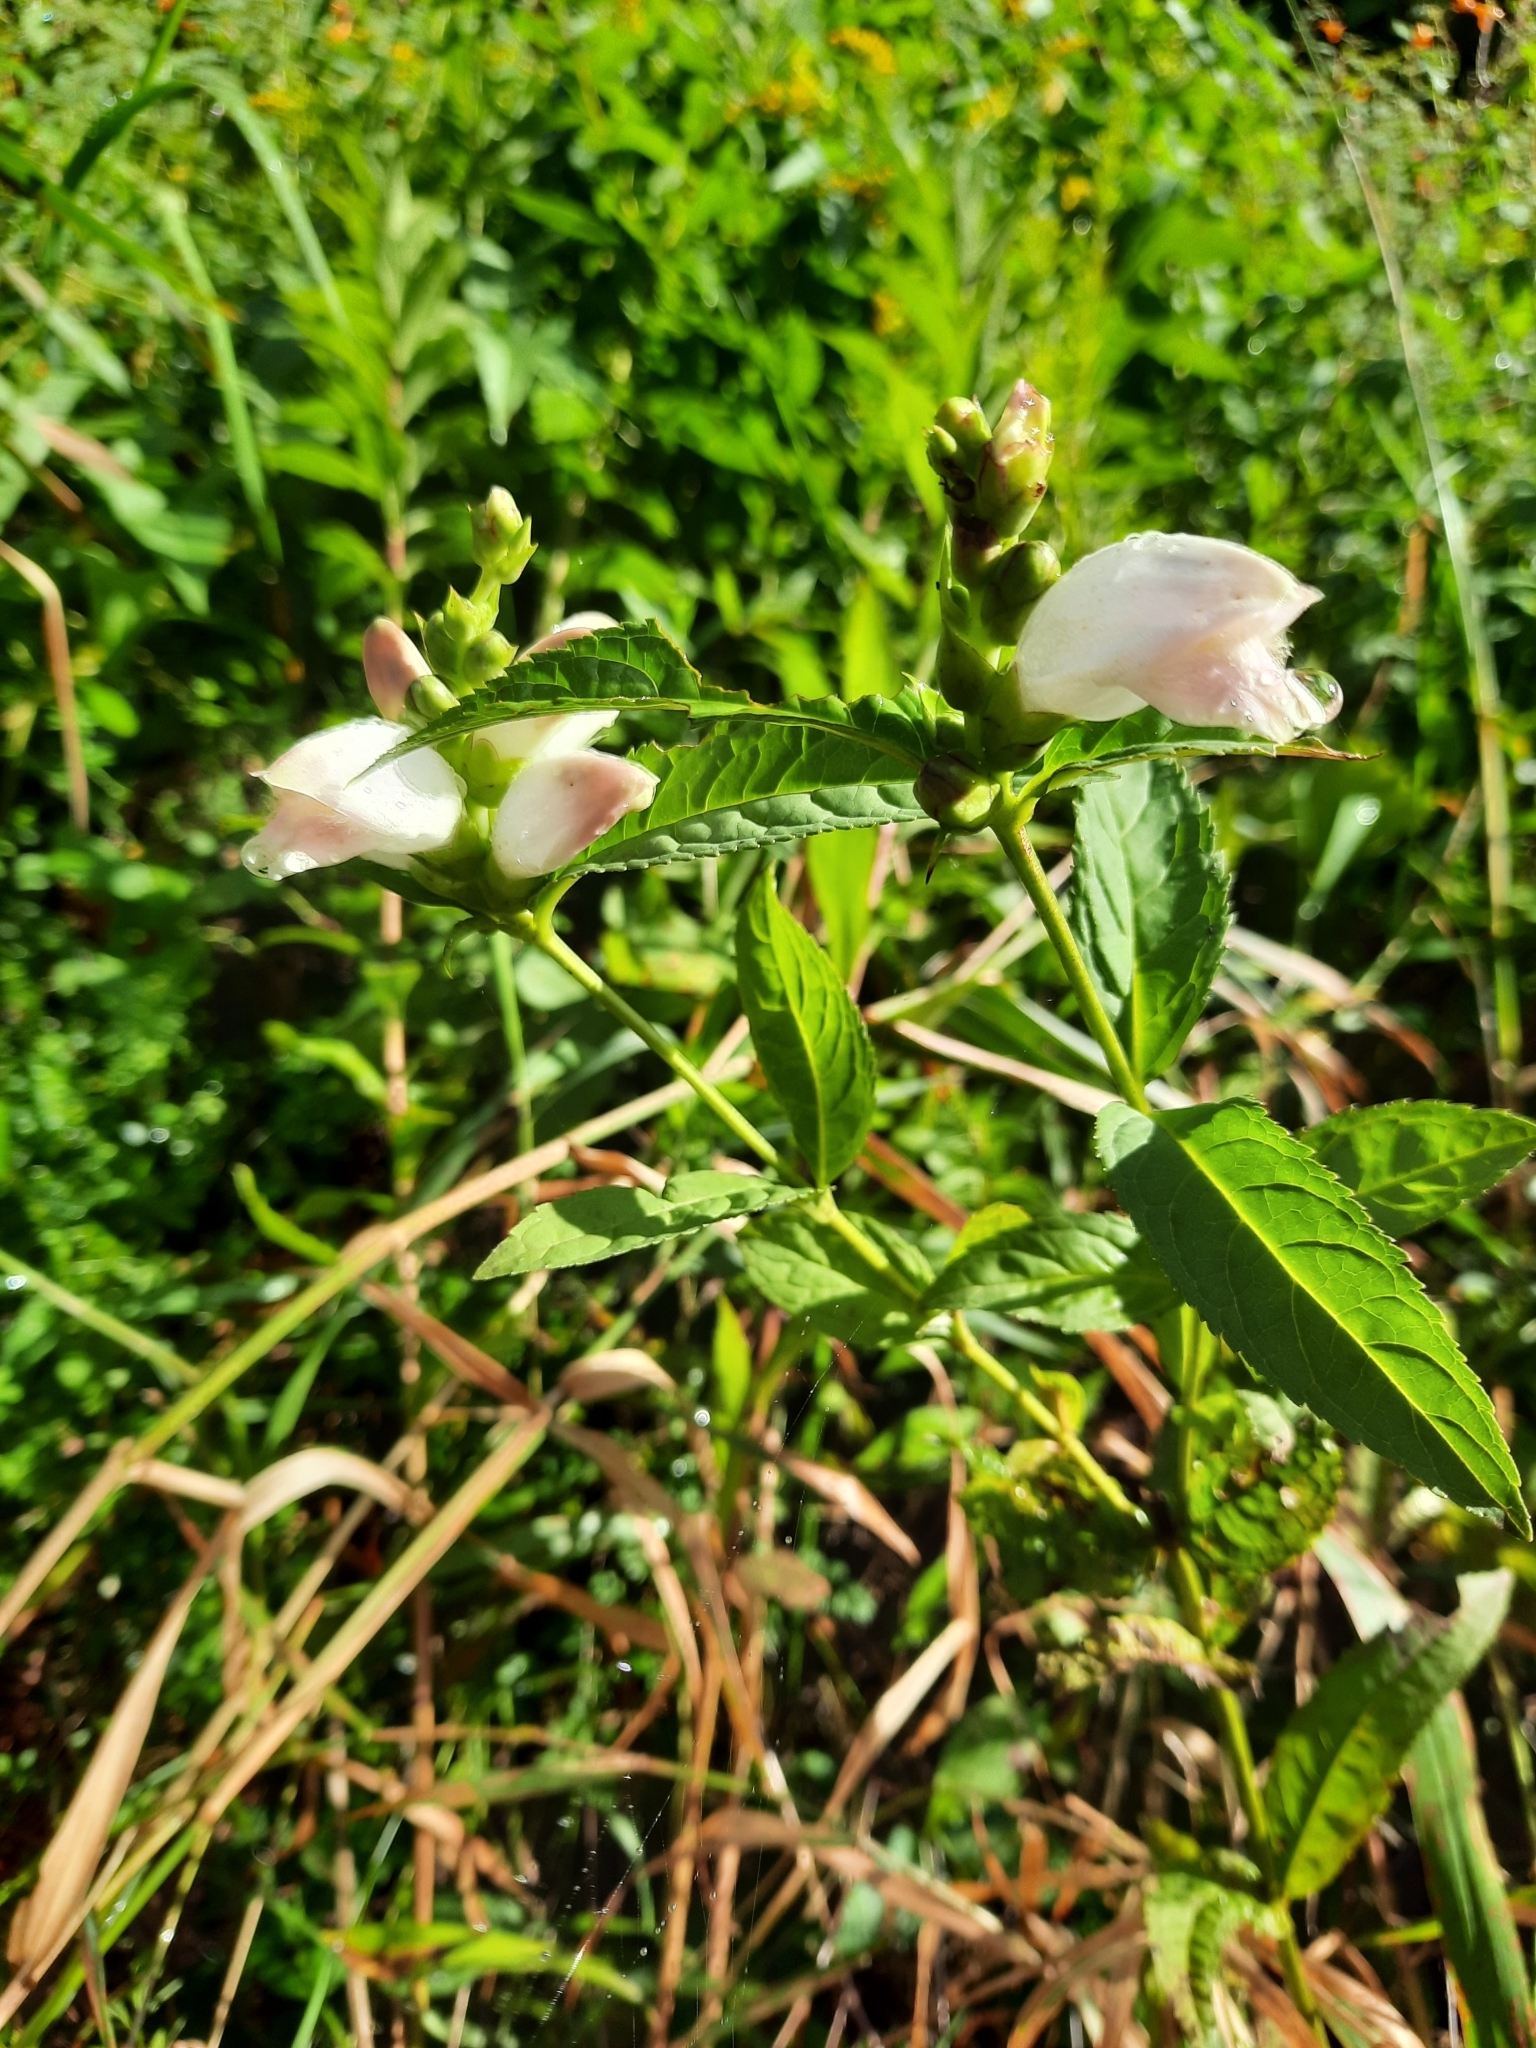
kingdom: Plantae
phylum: Tracheophyta
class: Magnoliopsida
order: Lamiales
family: Plantaginaceae
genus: Chelone
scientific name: Chelone glabra
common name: Snakehead
